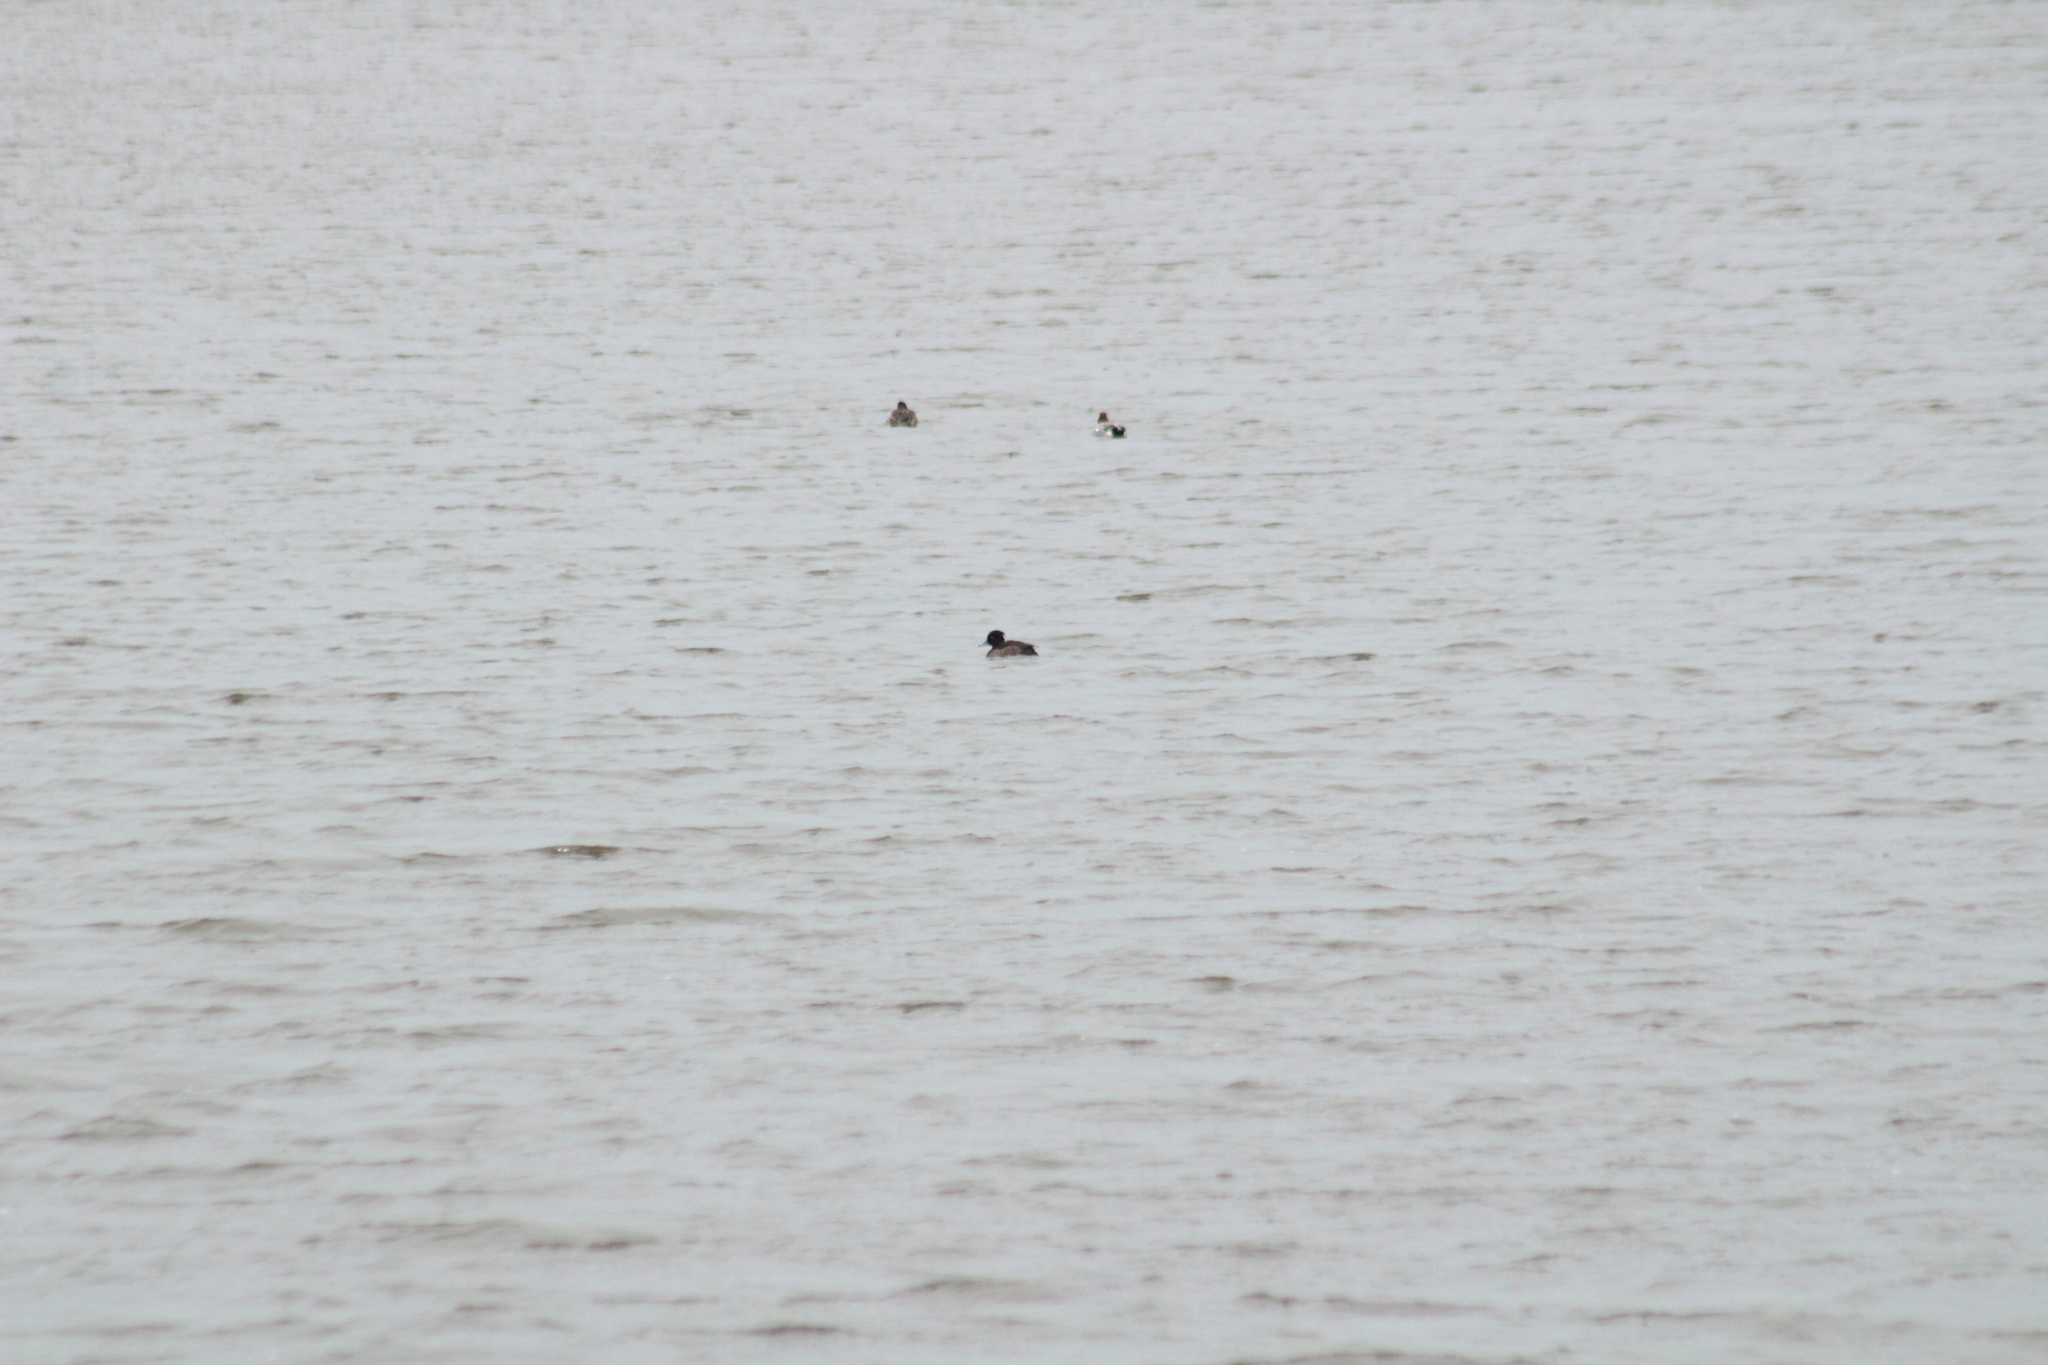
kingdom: Animalia
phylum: Chordata
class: Aves
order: Anseriformes
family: Anatidae
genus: Aythya
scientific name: Aythya fuligula
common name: Tufted duck
